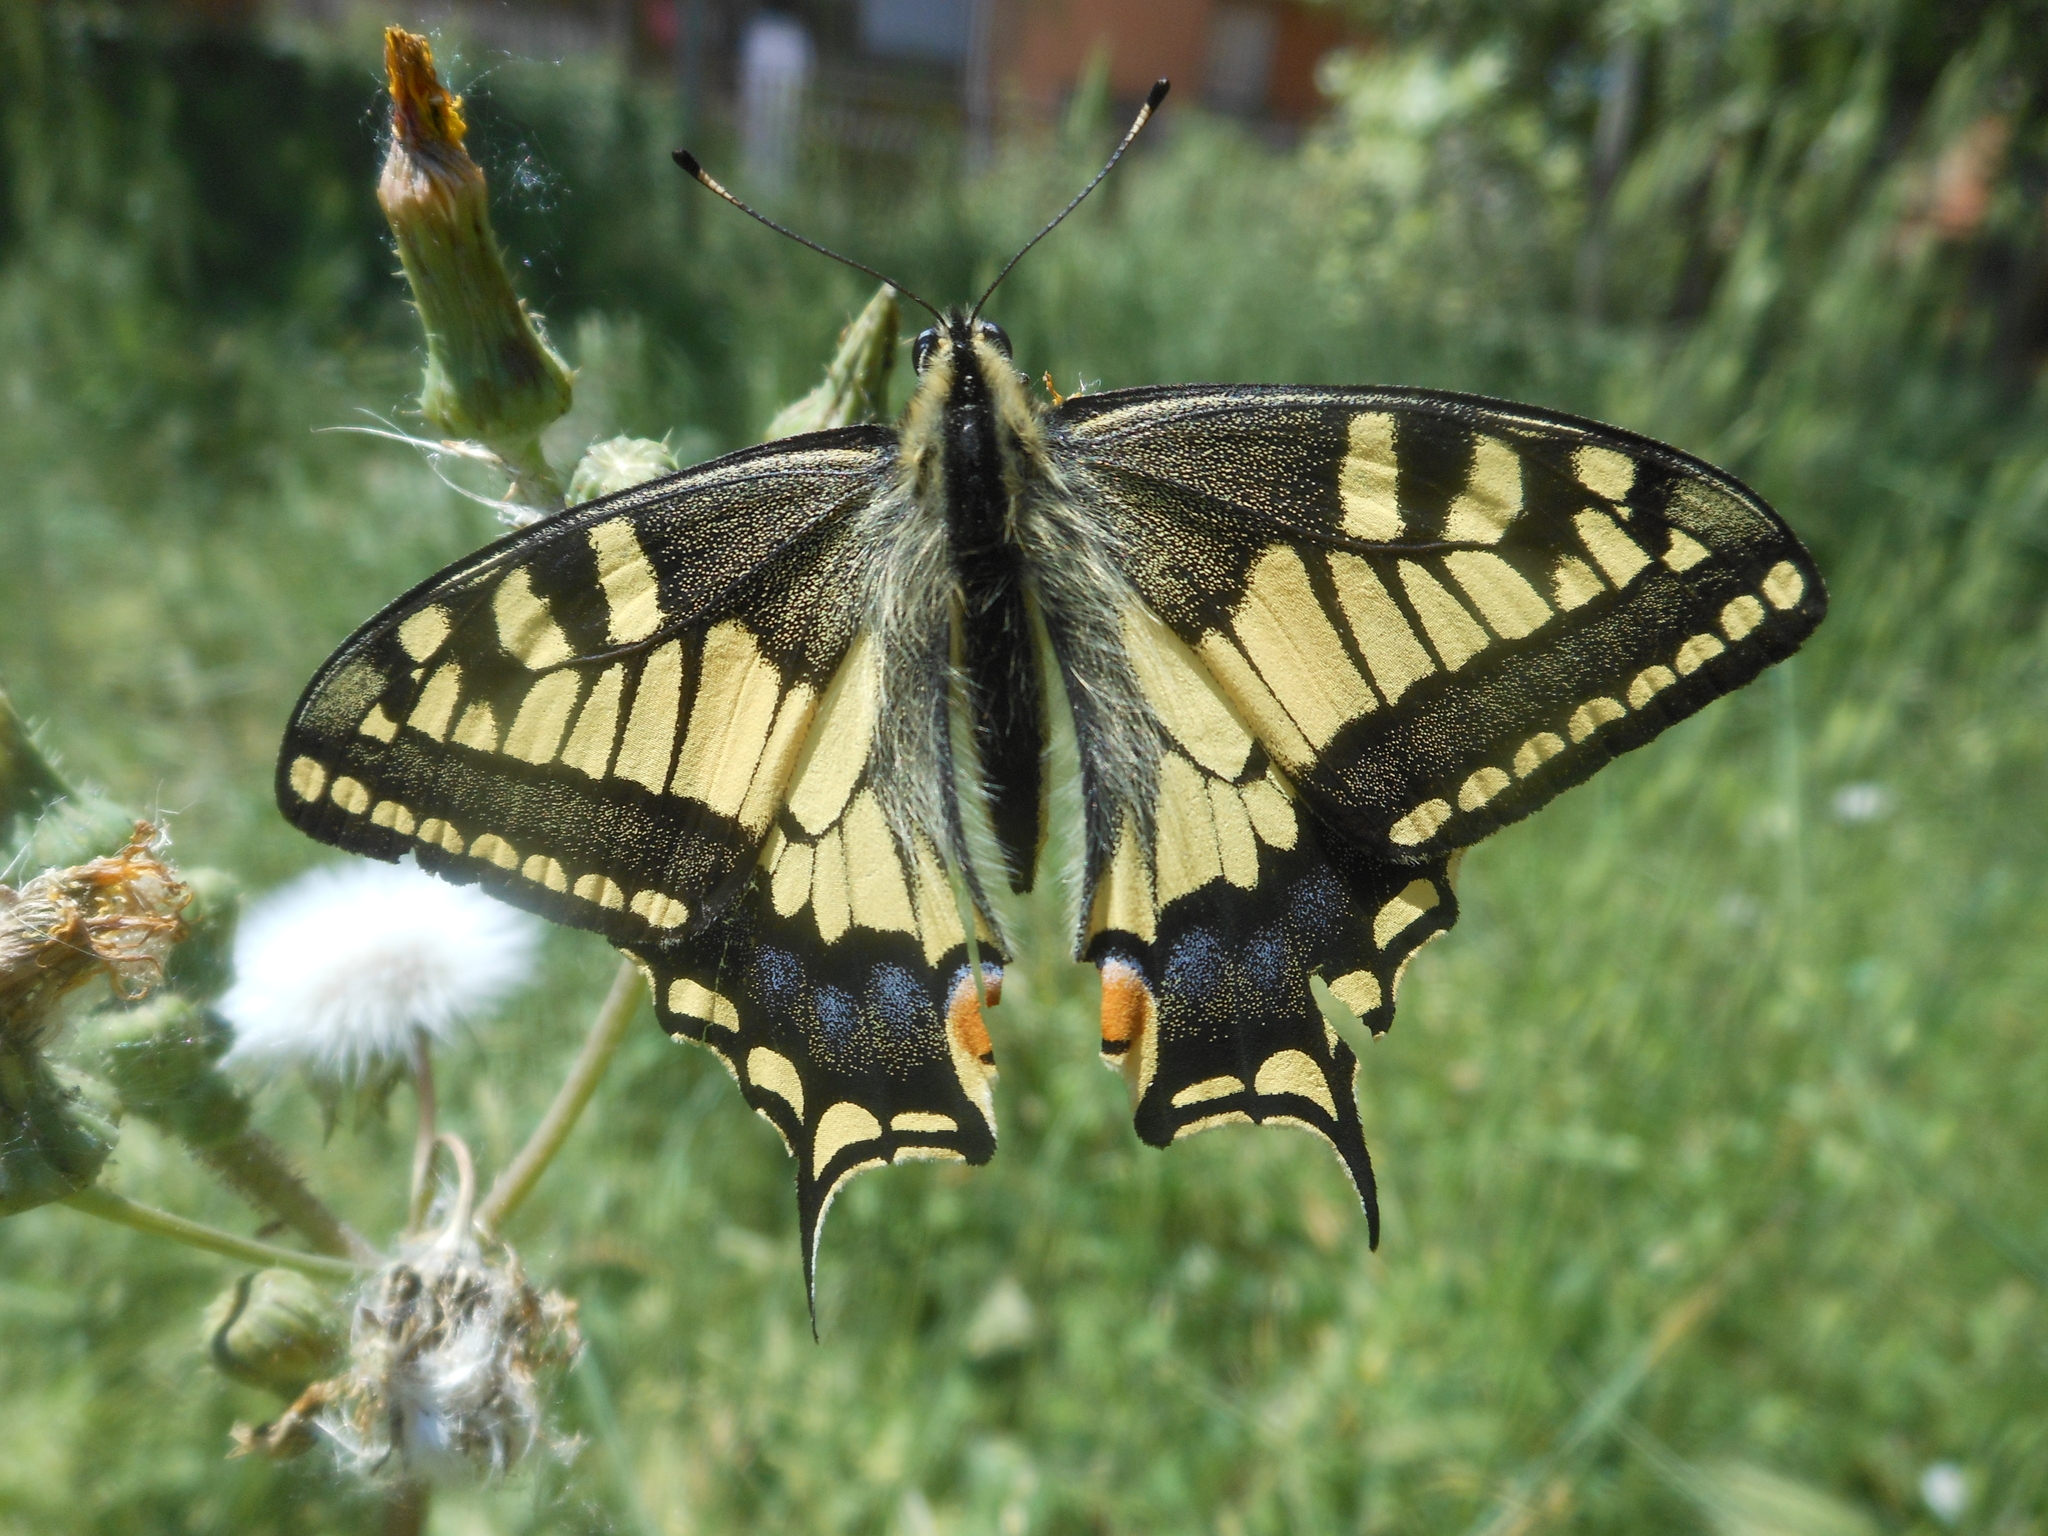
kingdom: Animalia
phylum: Arthropoda
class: Insecta
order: Lepidoptera
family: Papilionidae
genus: Papilio
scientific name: Papilio machaon
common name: Swallowtail
